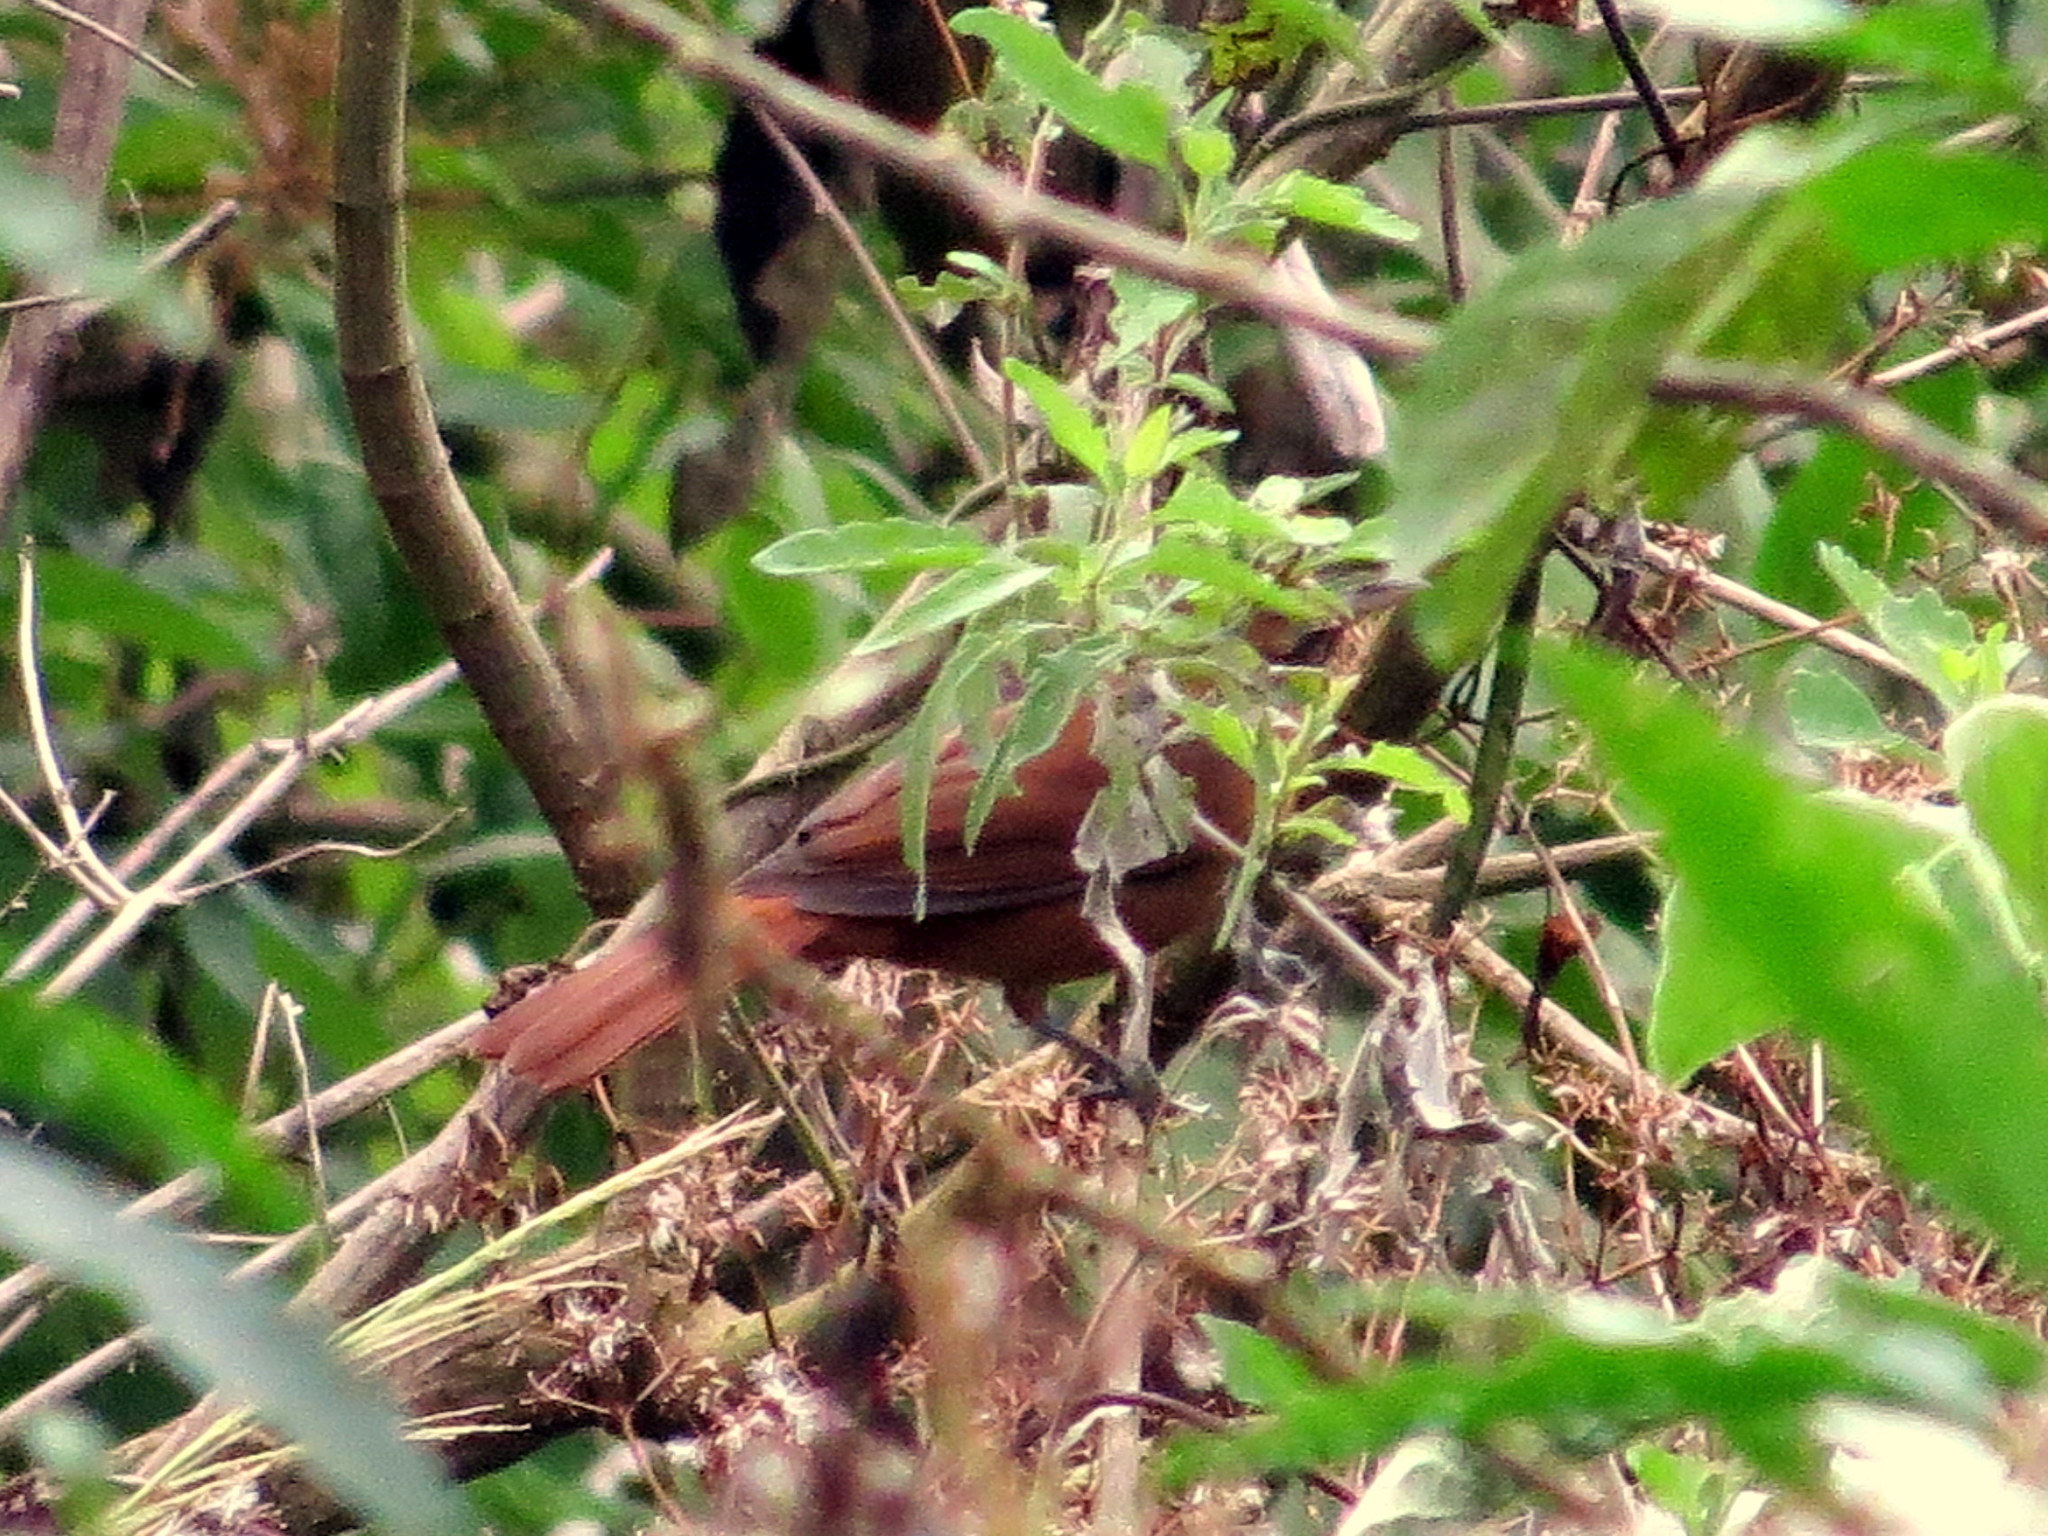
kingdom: Animalia
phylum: Chordata
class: Aves
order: Passeriformes
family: Cardinalidae
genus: Habia
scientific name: Habia rubica
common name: Red-crowned ant-tanager
